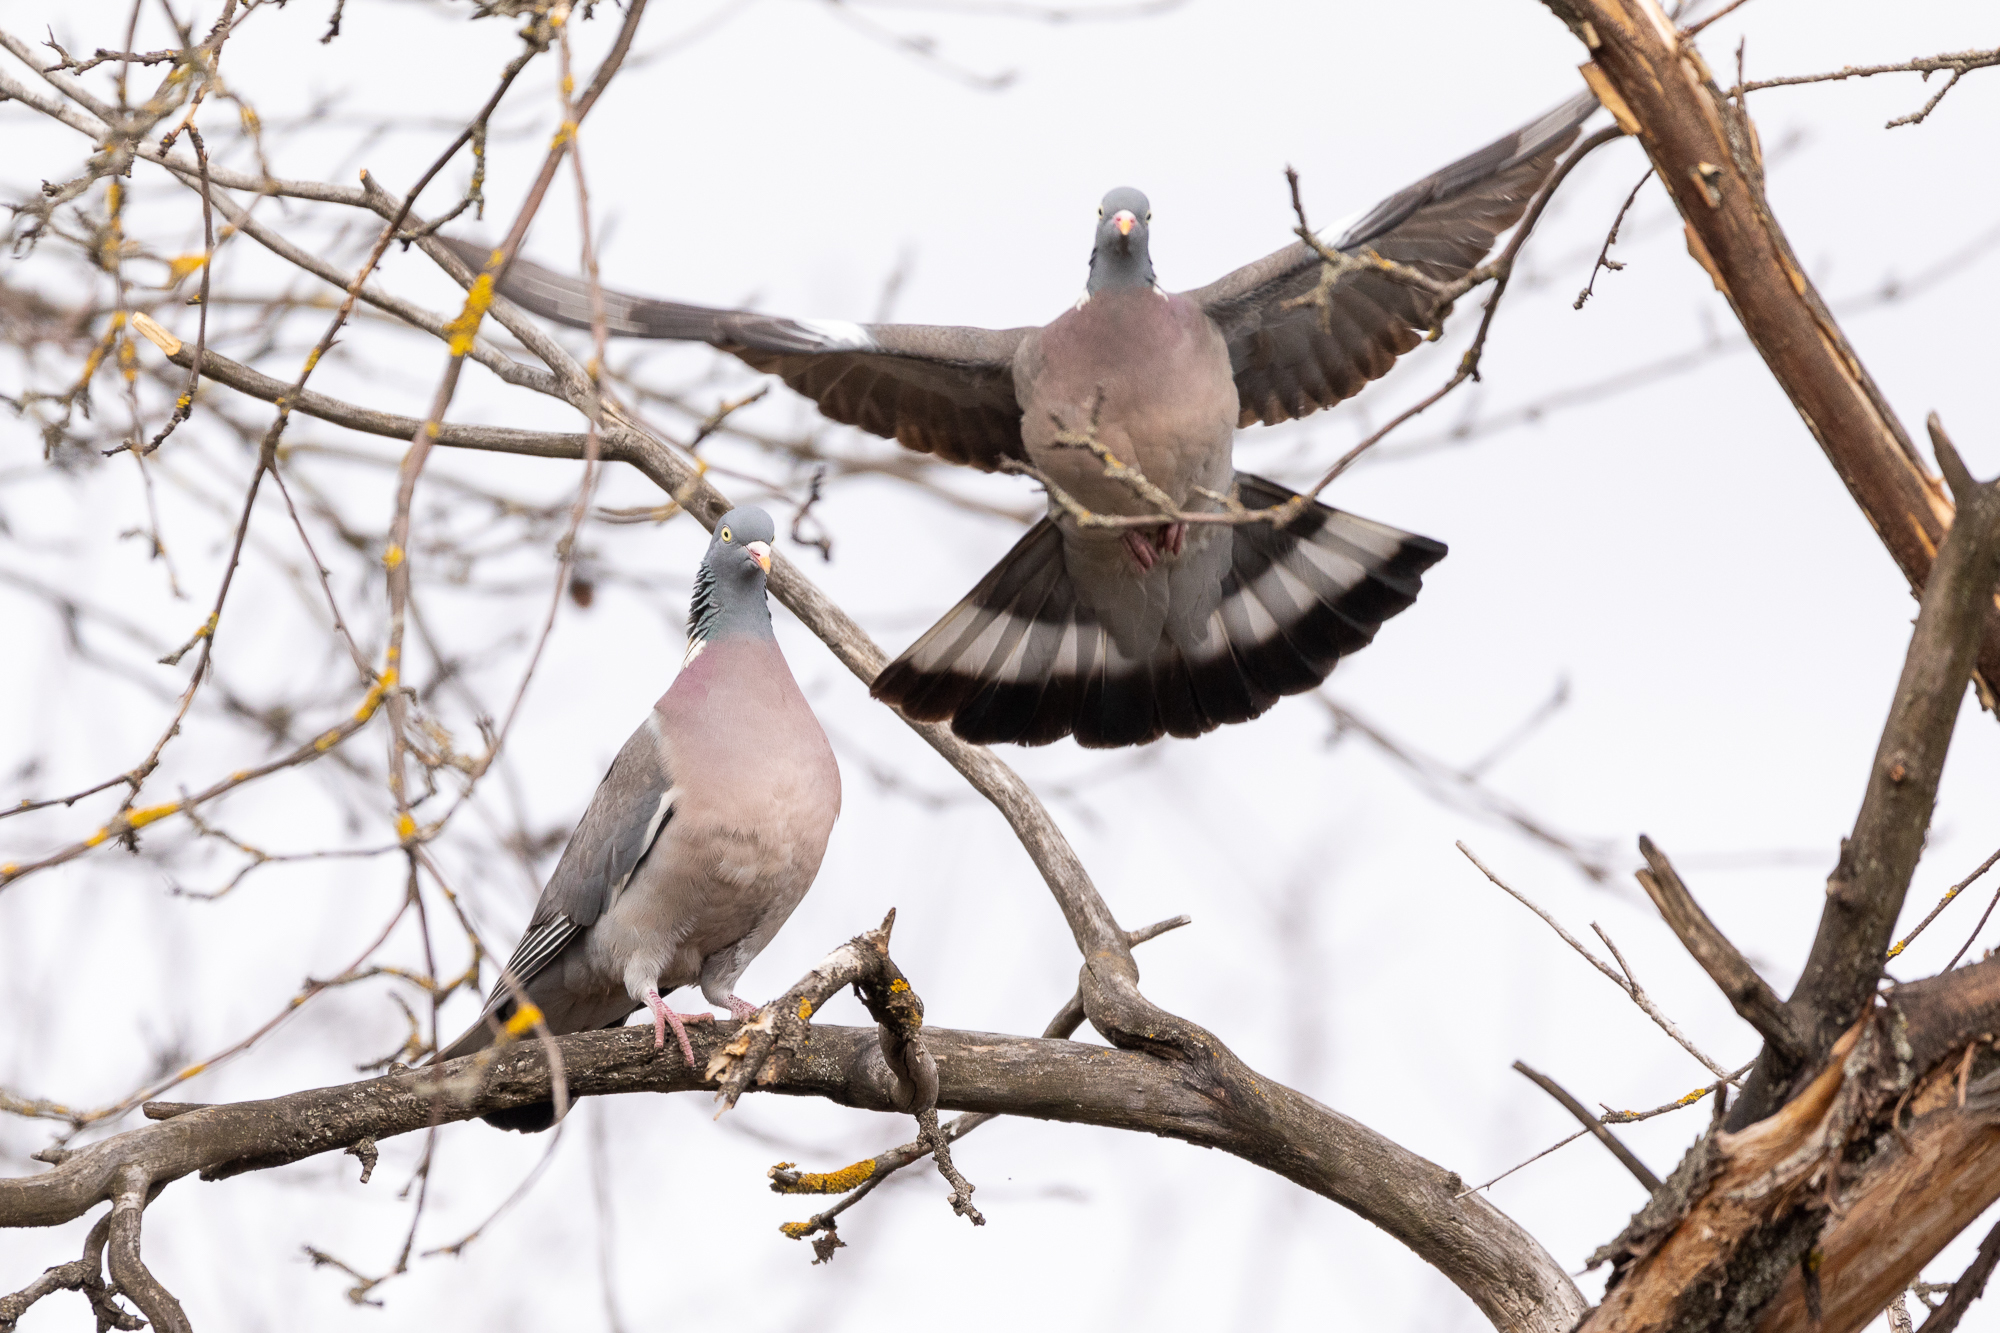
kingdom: Animalia
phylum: Chordata
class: Aves
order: Columbiformes
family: Columbidae
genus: Columba
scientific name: Columba palumbus
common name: Common wood pigeon
